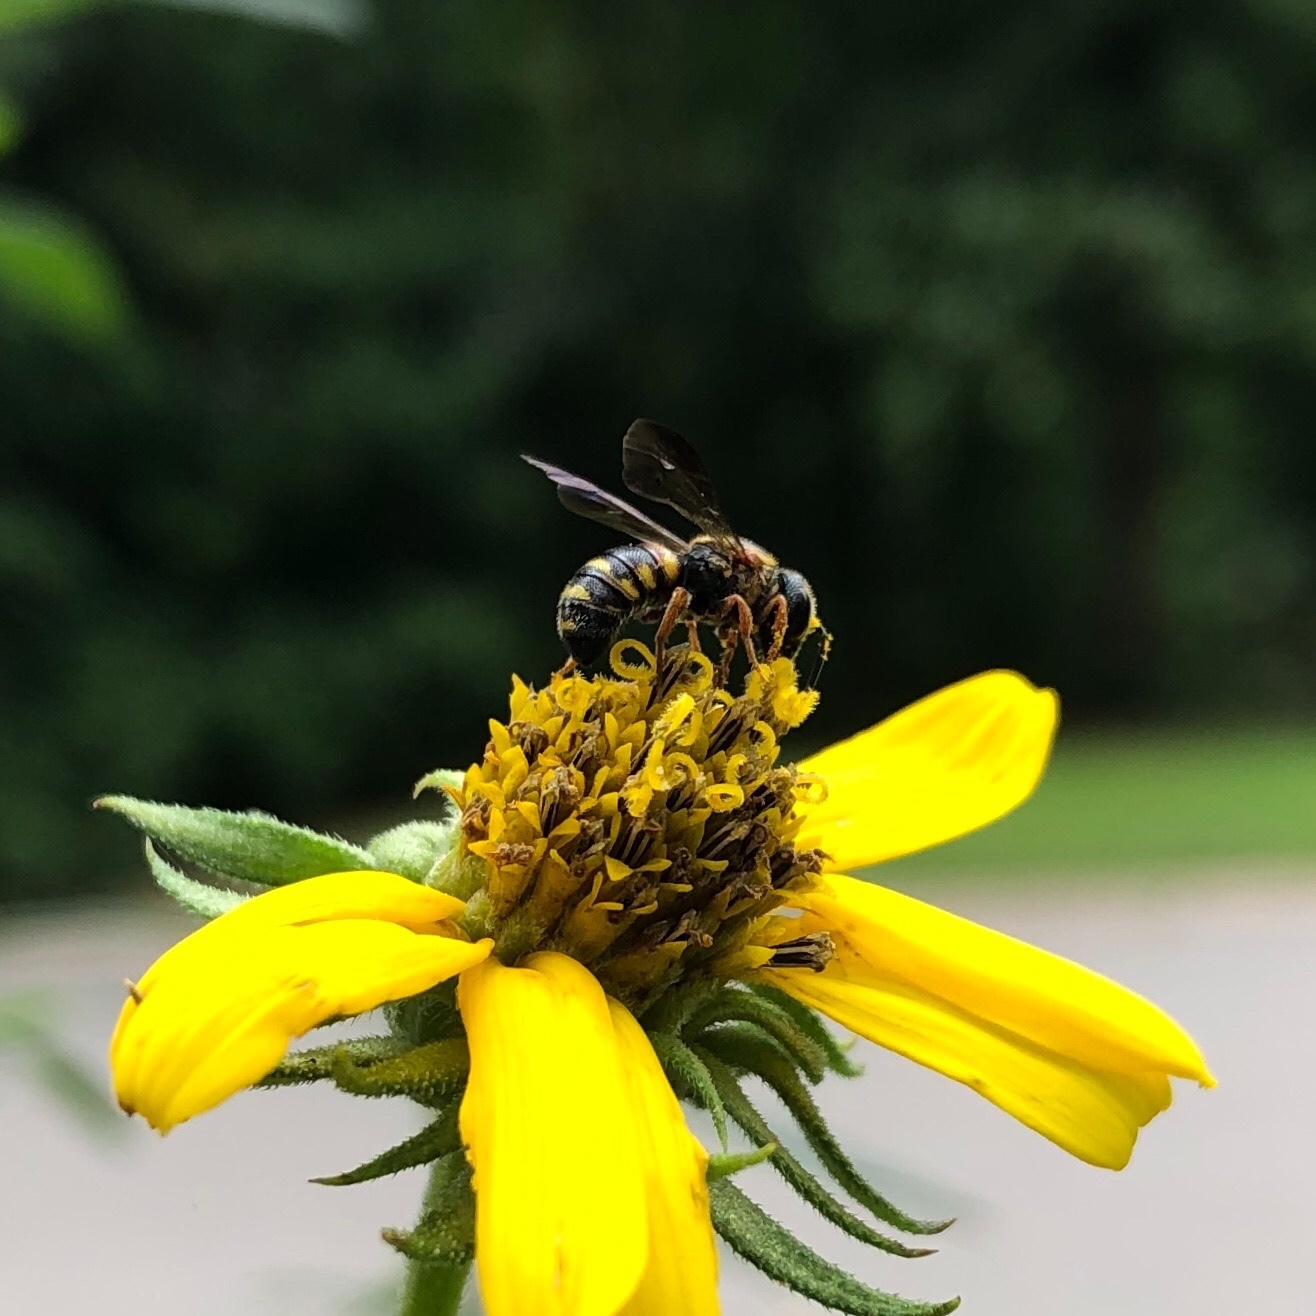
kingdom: Animalia
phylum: Arthropoda
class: Insecta
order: Hymenoptera
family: Megachilidae
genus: Stelis
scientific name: Stelis louisae
